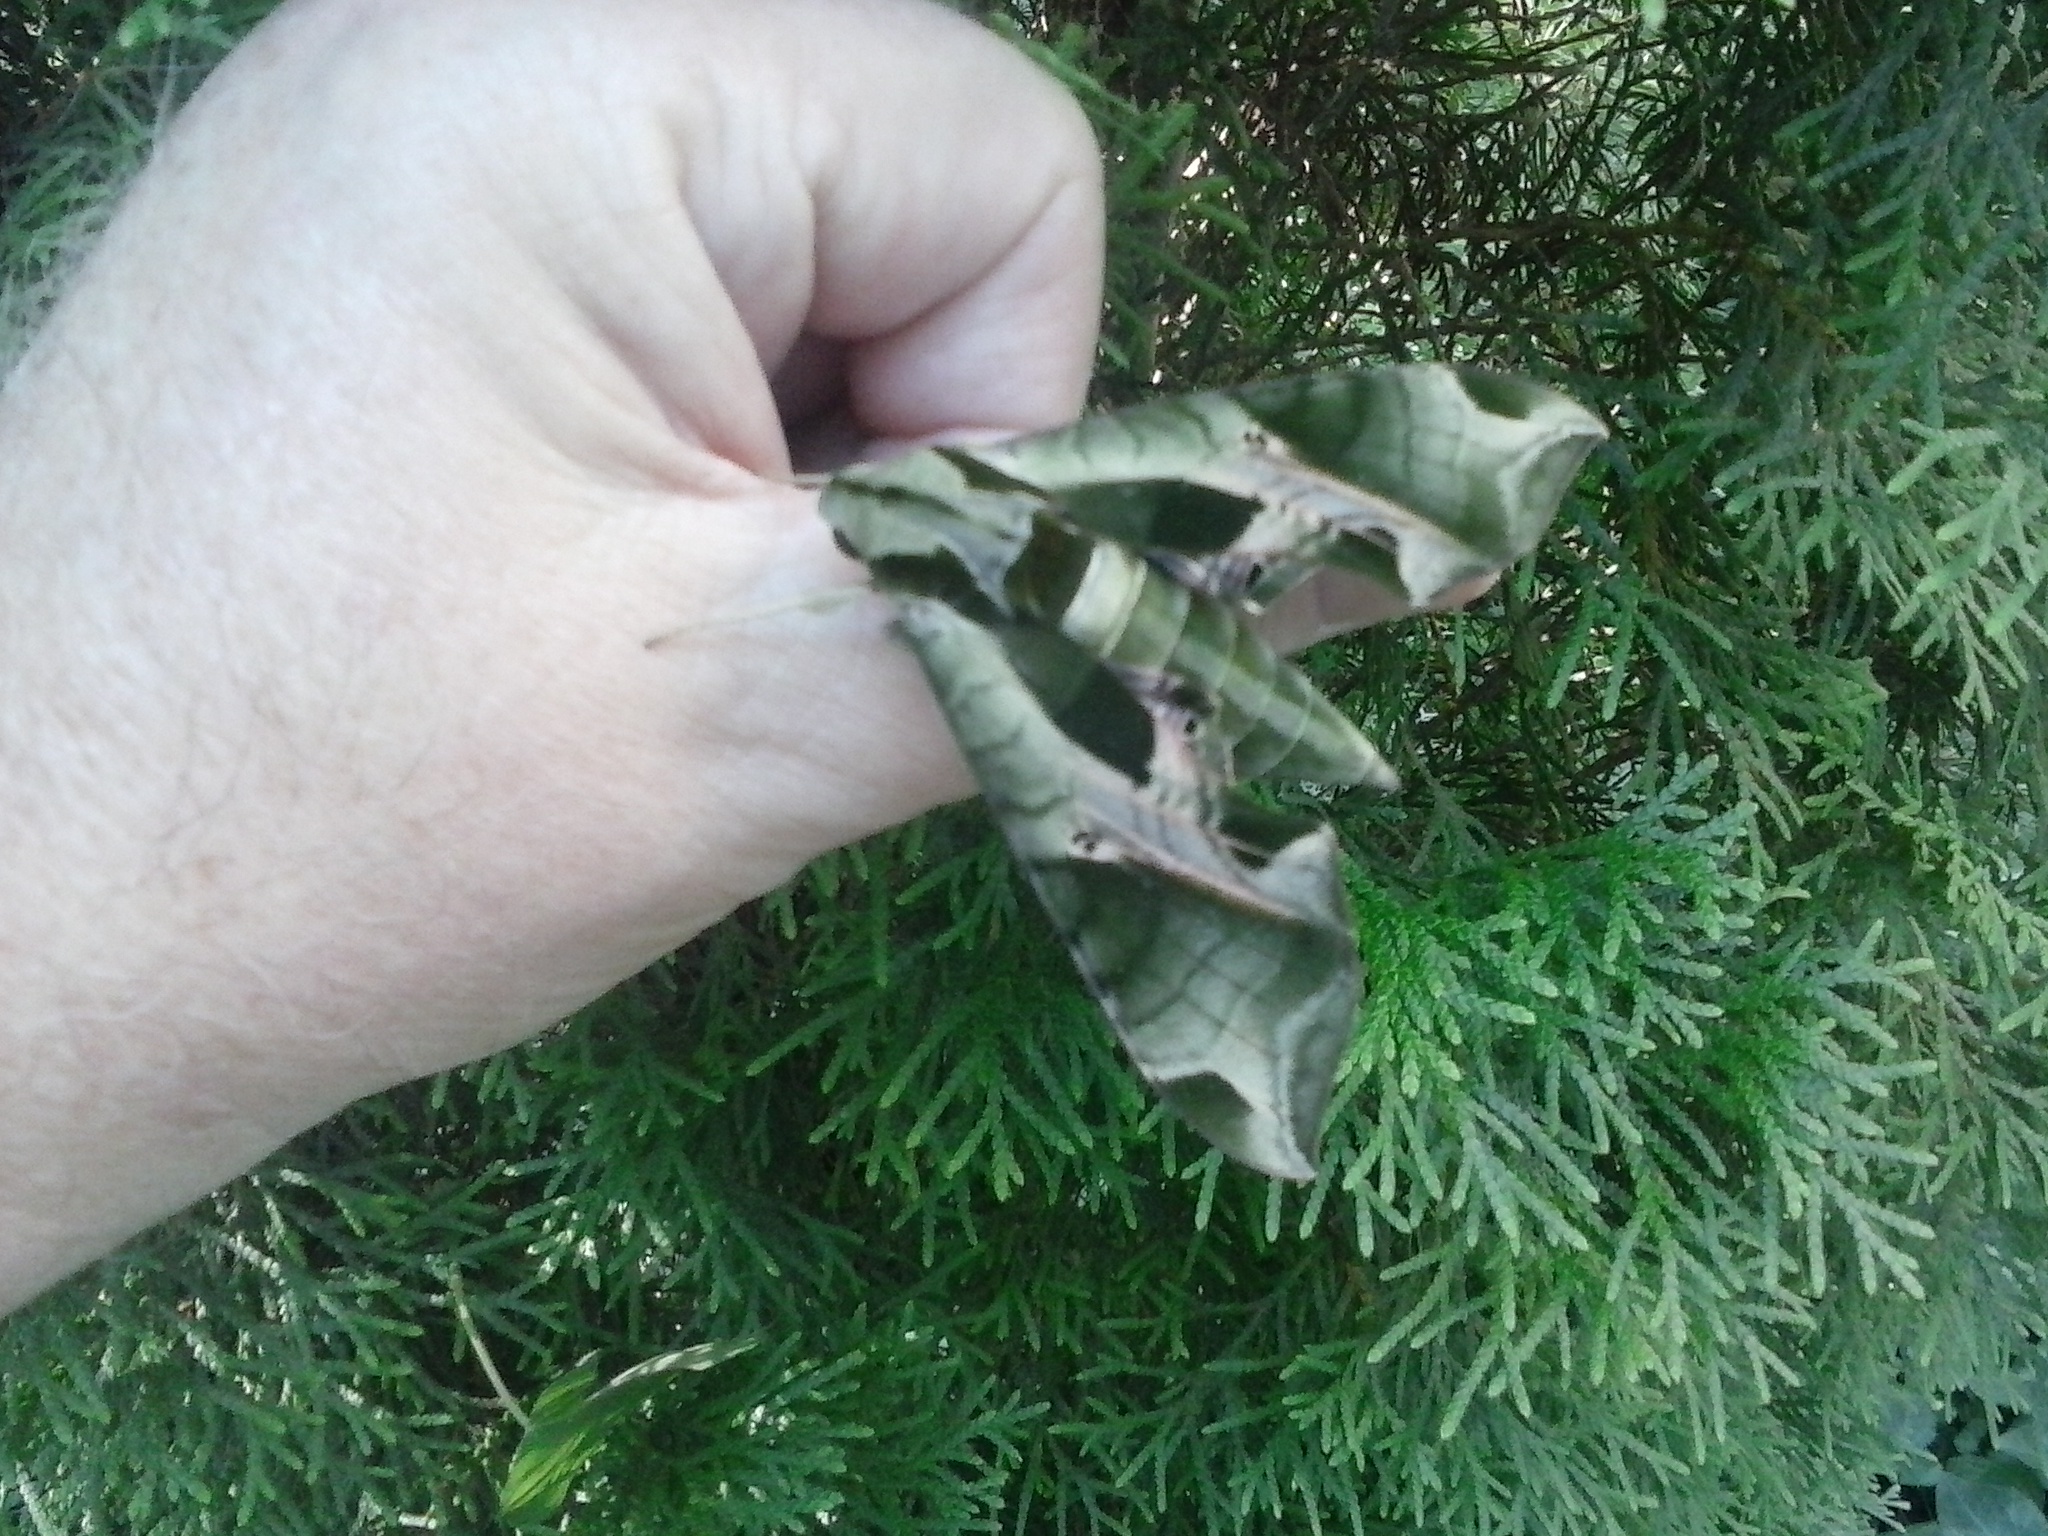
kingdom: Animalia
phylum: Arthropoda
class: Insecta
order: Lepidoptera
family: Sphingidae
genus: Eumorpha
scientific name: Eumorpha pandorus
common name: Pandora sphinx
